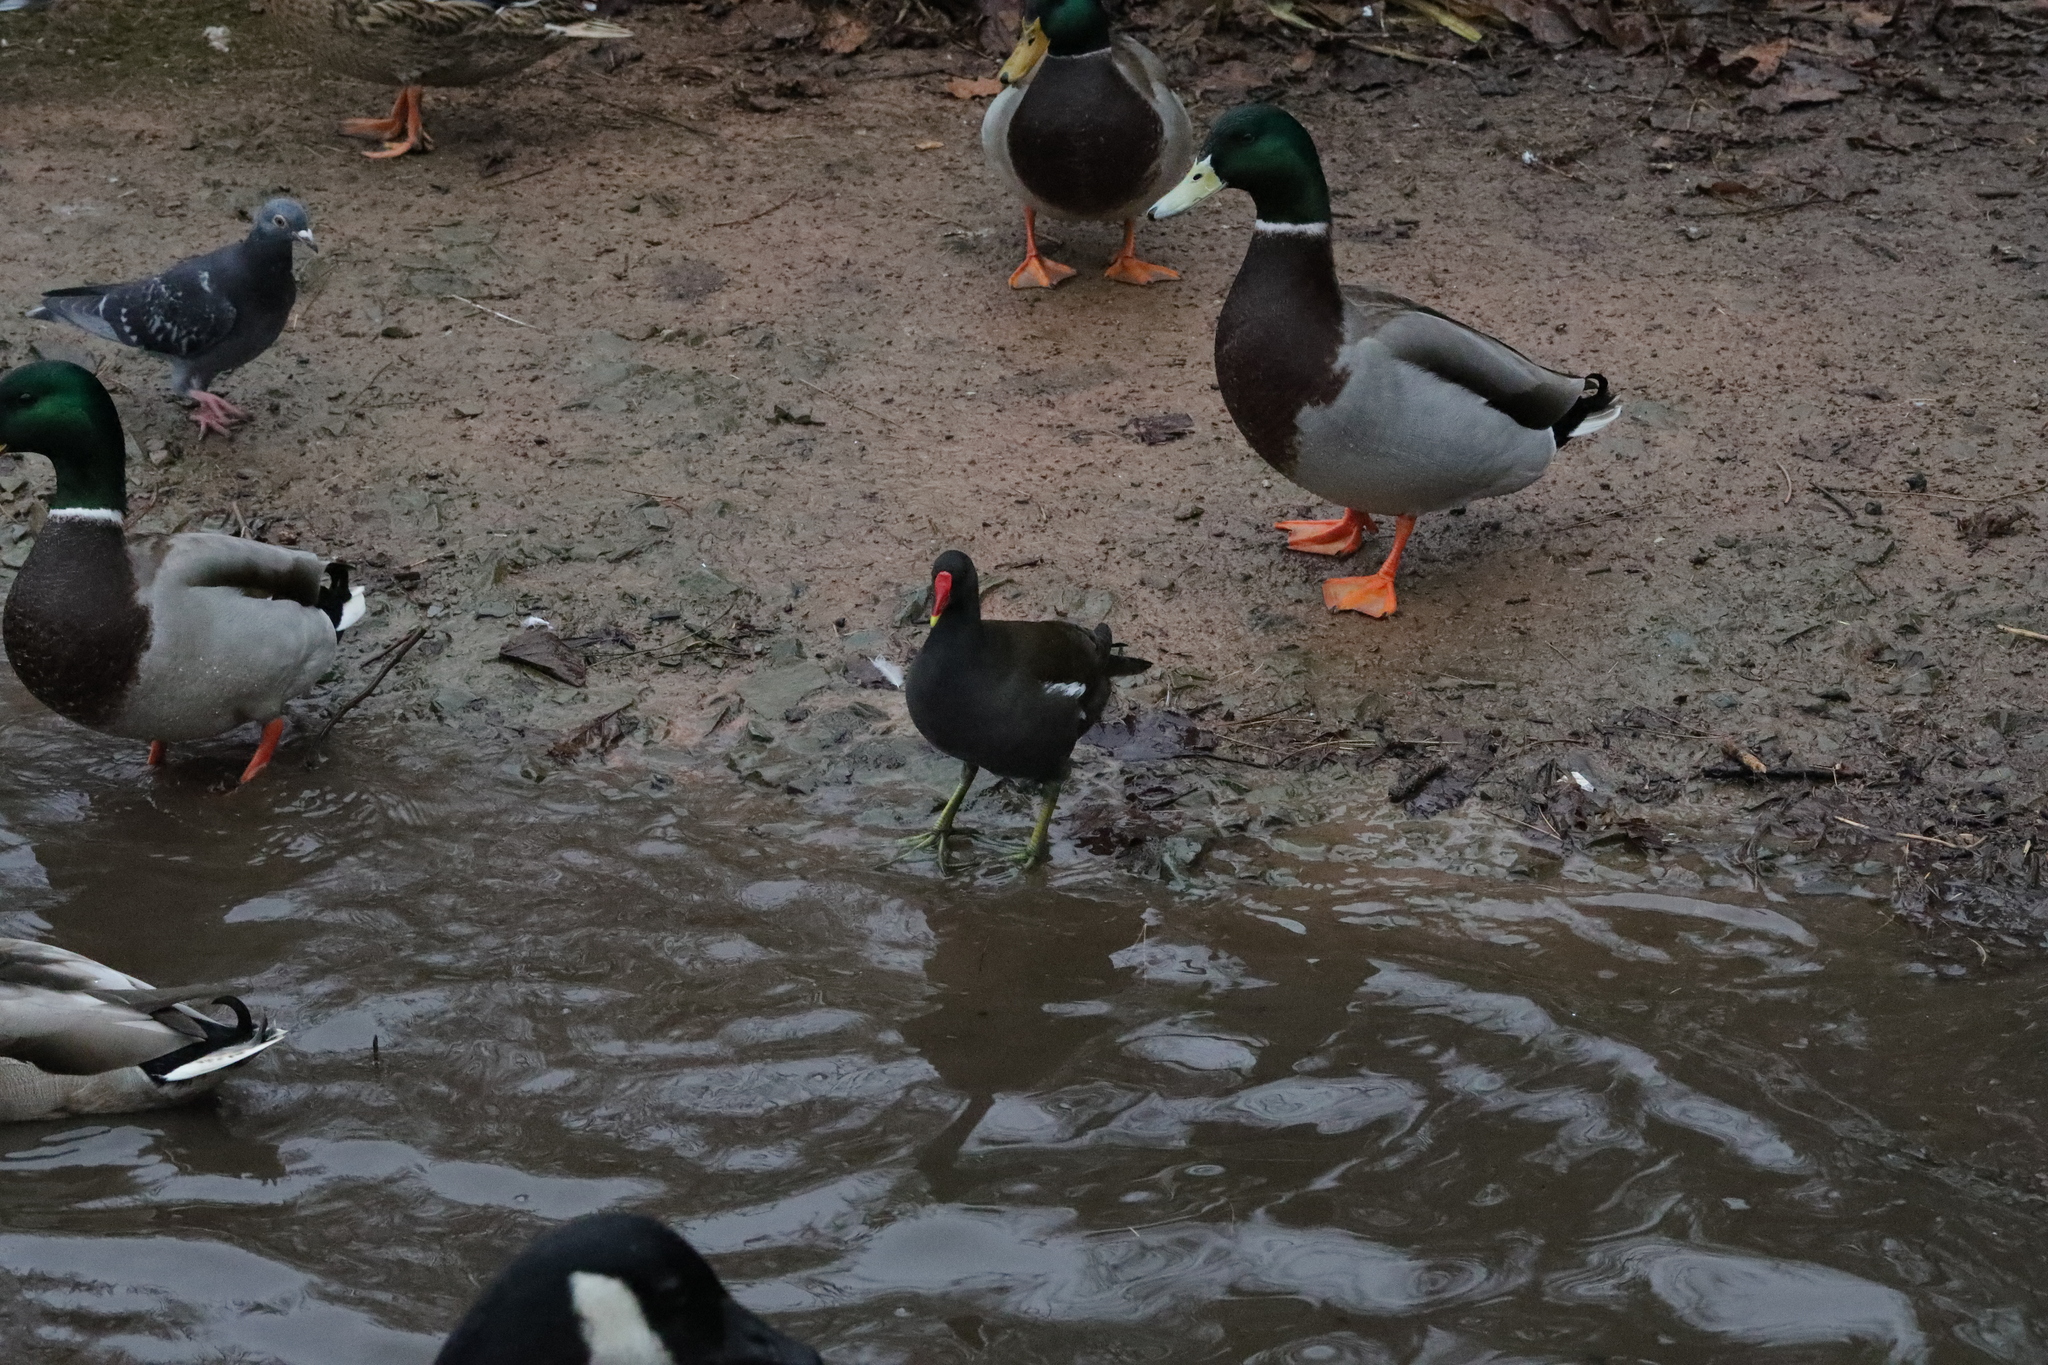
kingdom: Animalia
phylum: Chordata
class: Aves
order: Gruiformes
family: Rallidae
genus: Gallinula
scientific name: Gallinula chloropus
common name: Common moorhen
